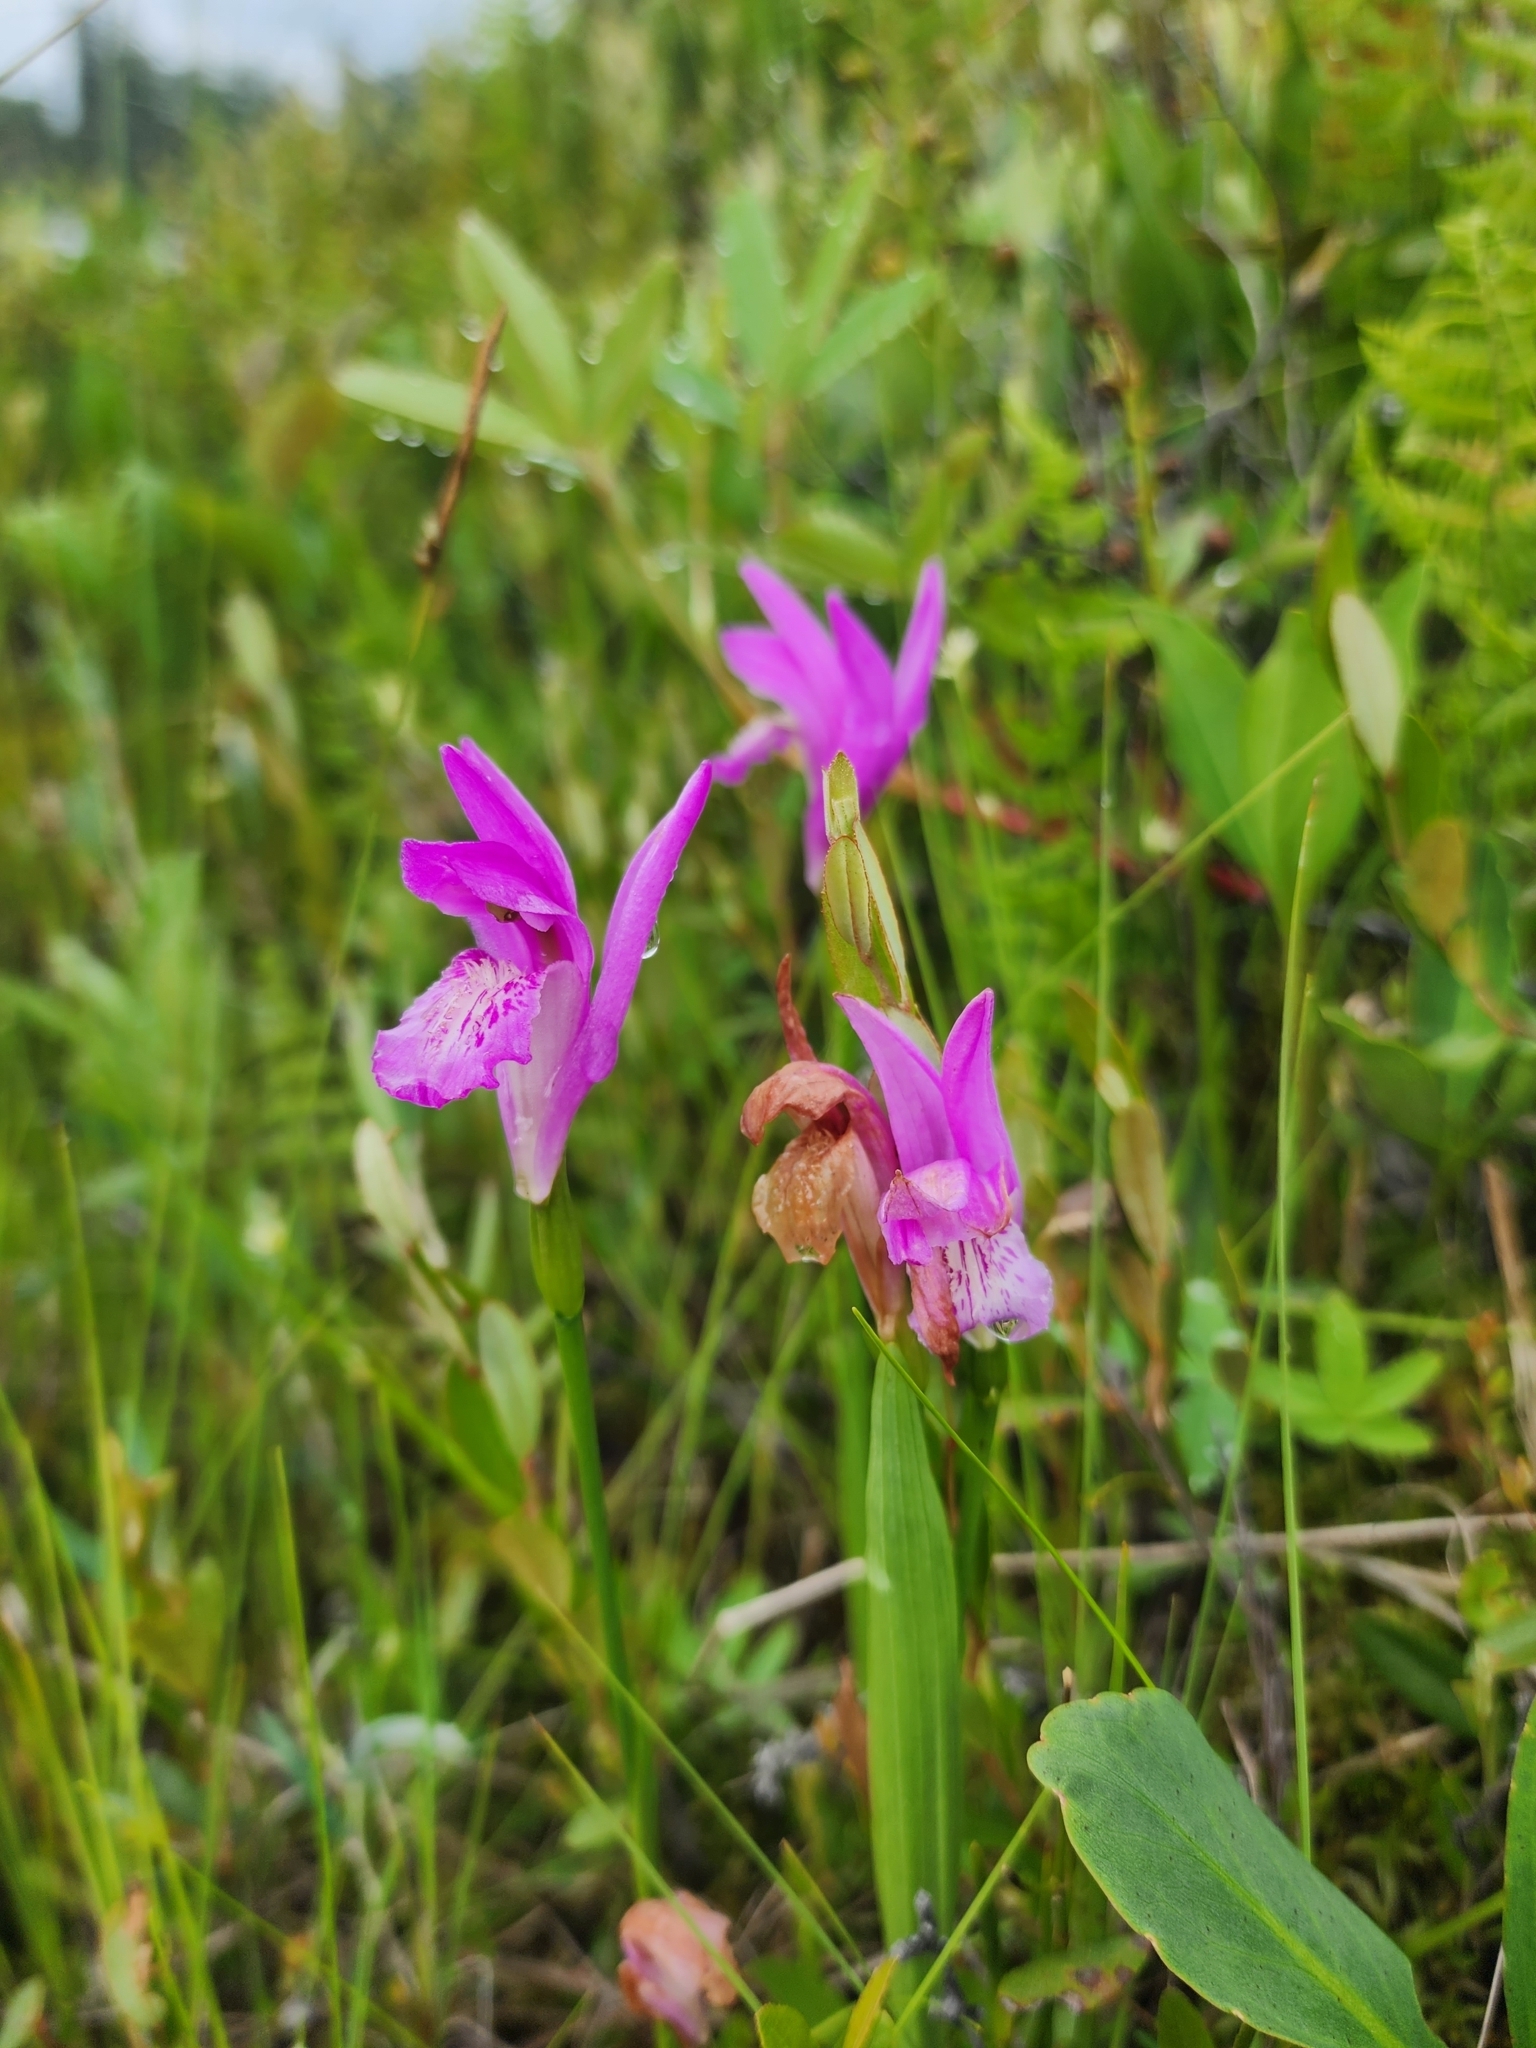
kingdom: Plantae
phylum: Tracheophyta
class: Liliopsida
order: Asparagales
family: Orchidaceae
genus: Arethusa
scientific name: Arethusa bulbosa
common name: Arethusa
